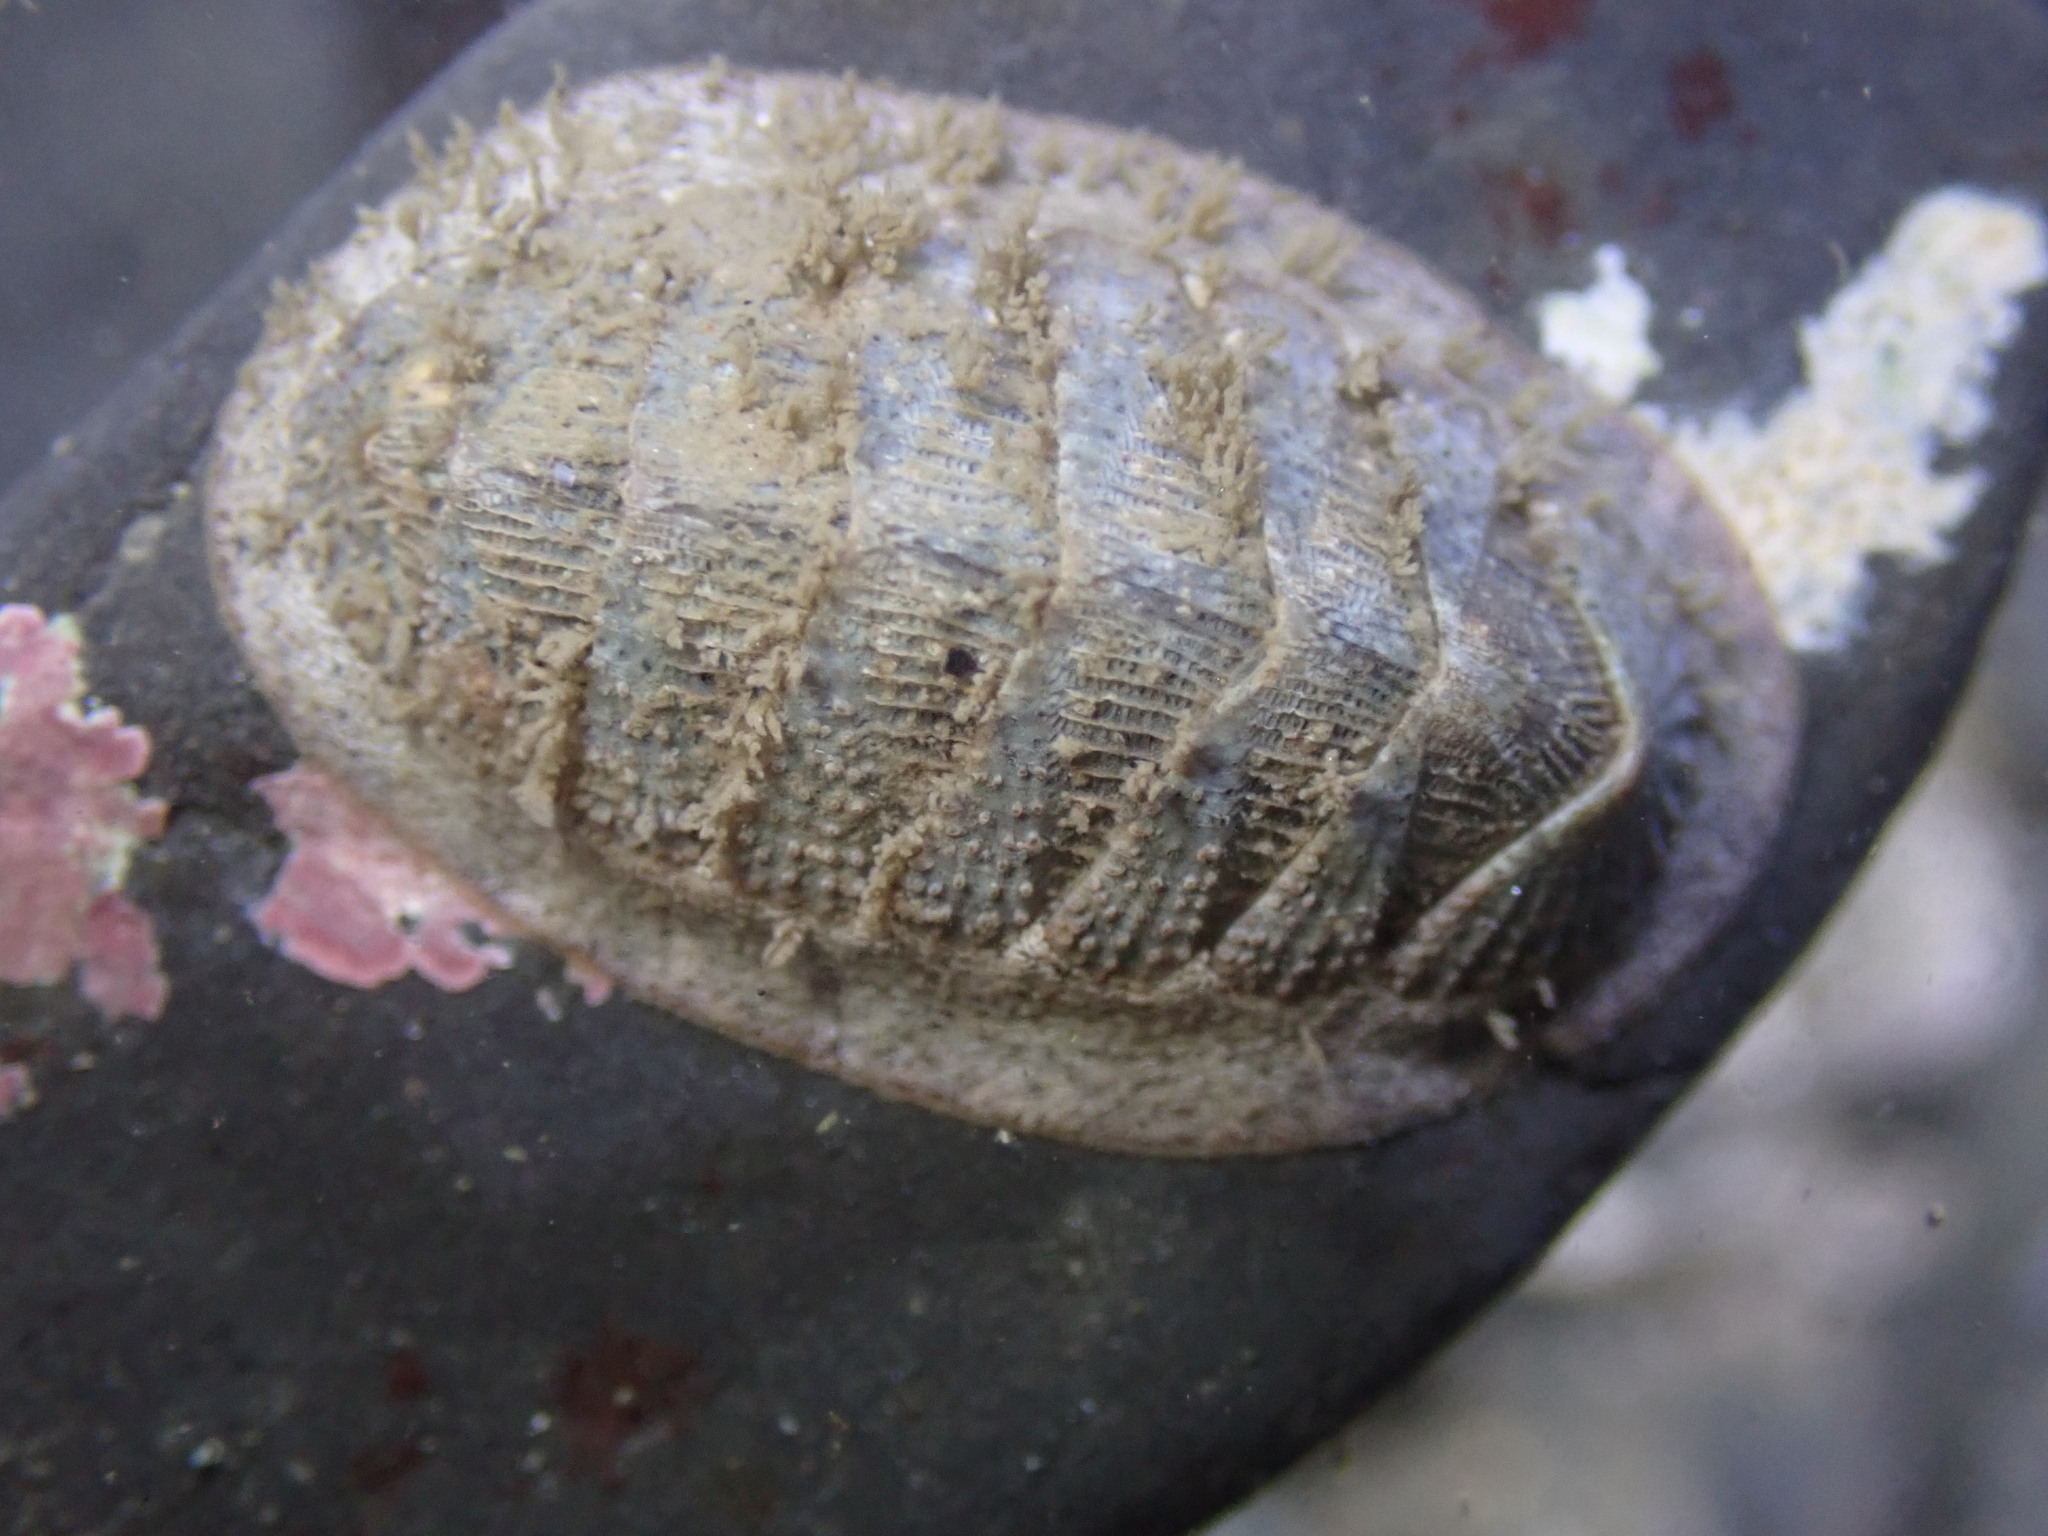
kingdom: Animalia
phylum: Mollusca
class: Polyplacophora
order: Chitonida
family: Ischnochitonidae
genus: Lepidozona
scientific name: Lepidozona cooperi
